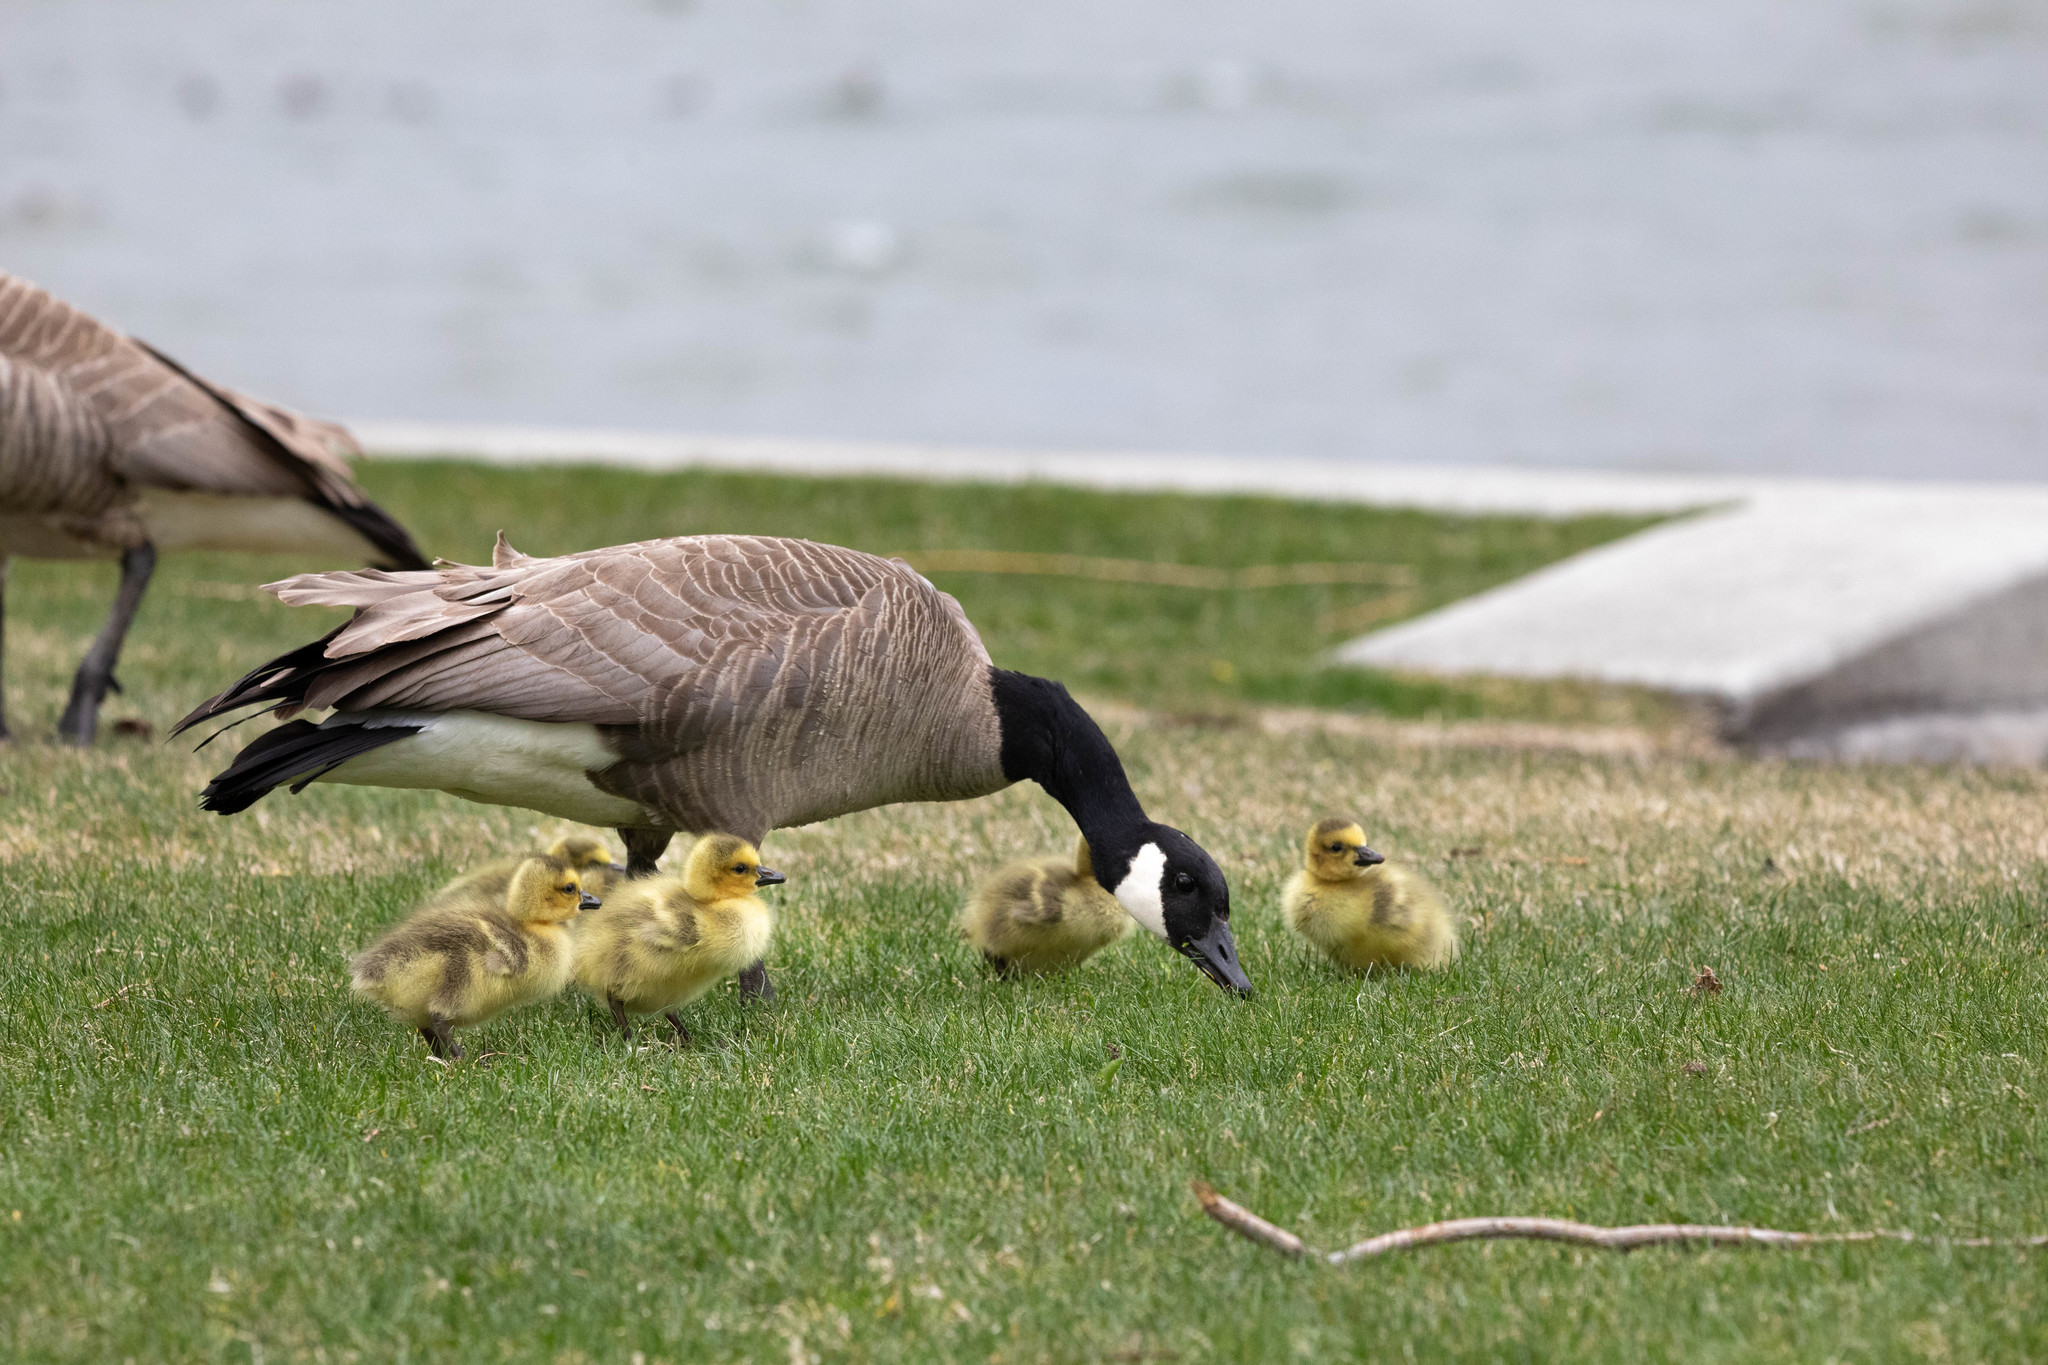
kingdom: Animalia
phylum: Chordata
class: Aves
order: Anseriformes
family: Anatidae
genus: Branta
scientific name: Branta canadensis
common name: Canada goose
